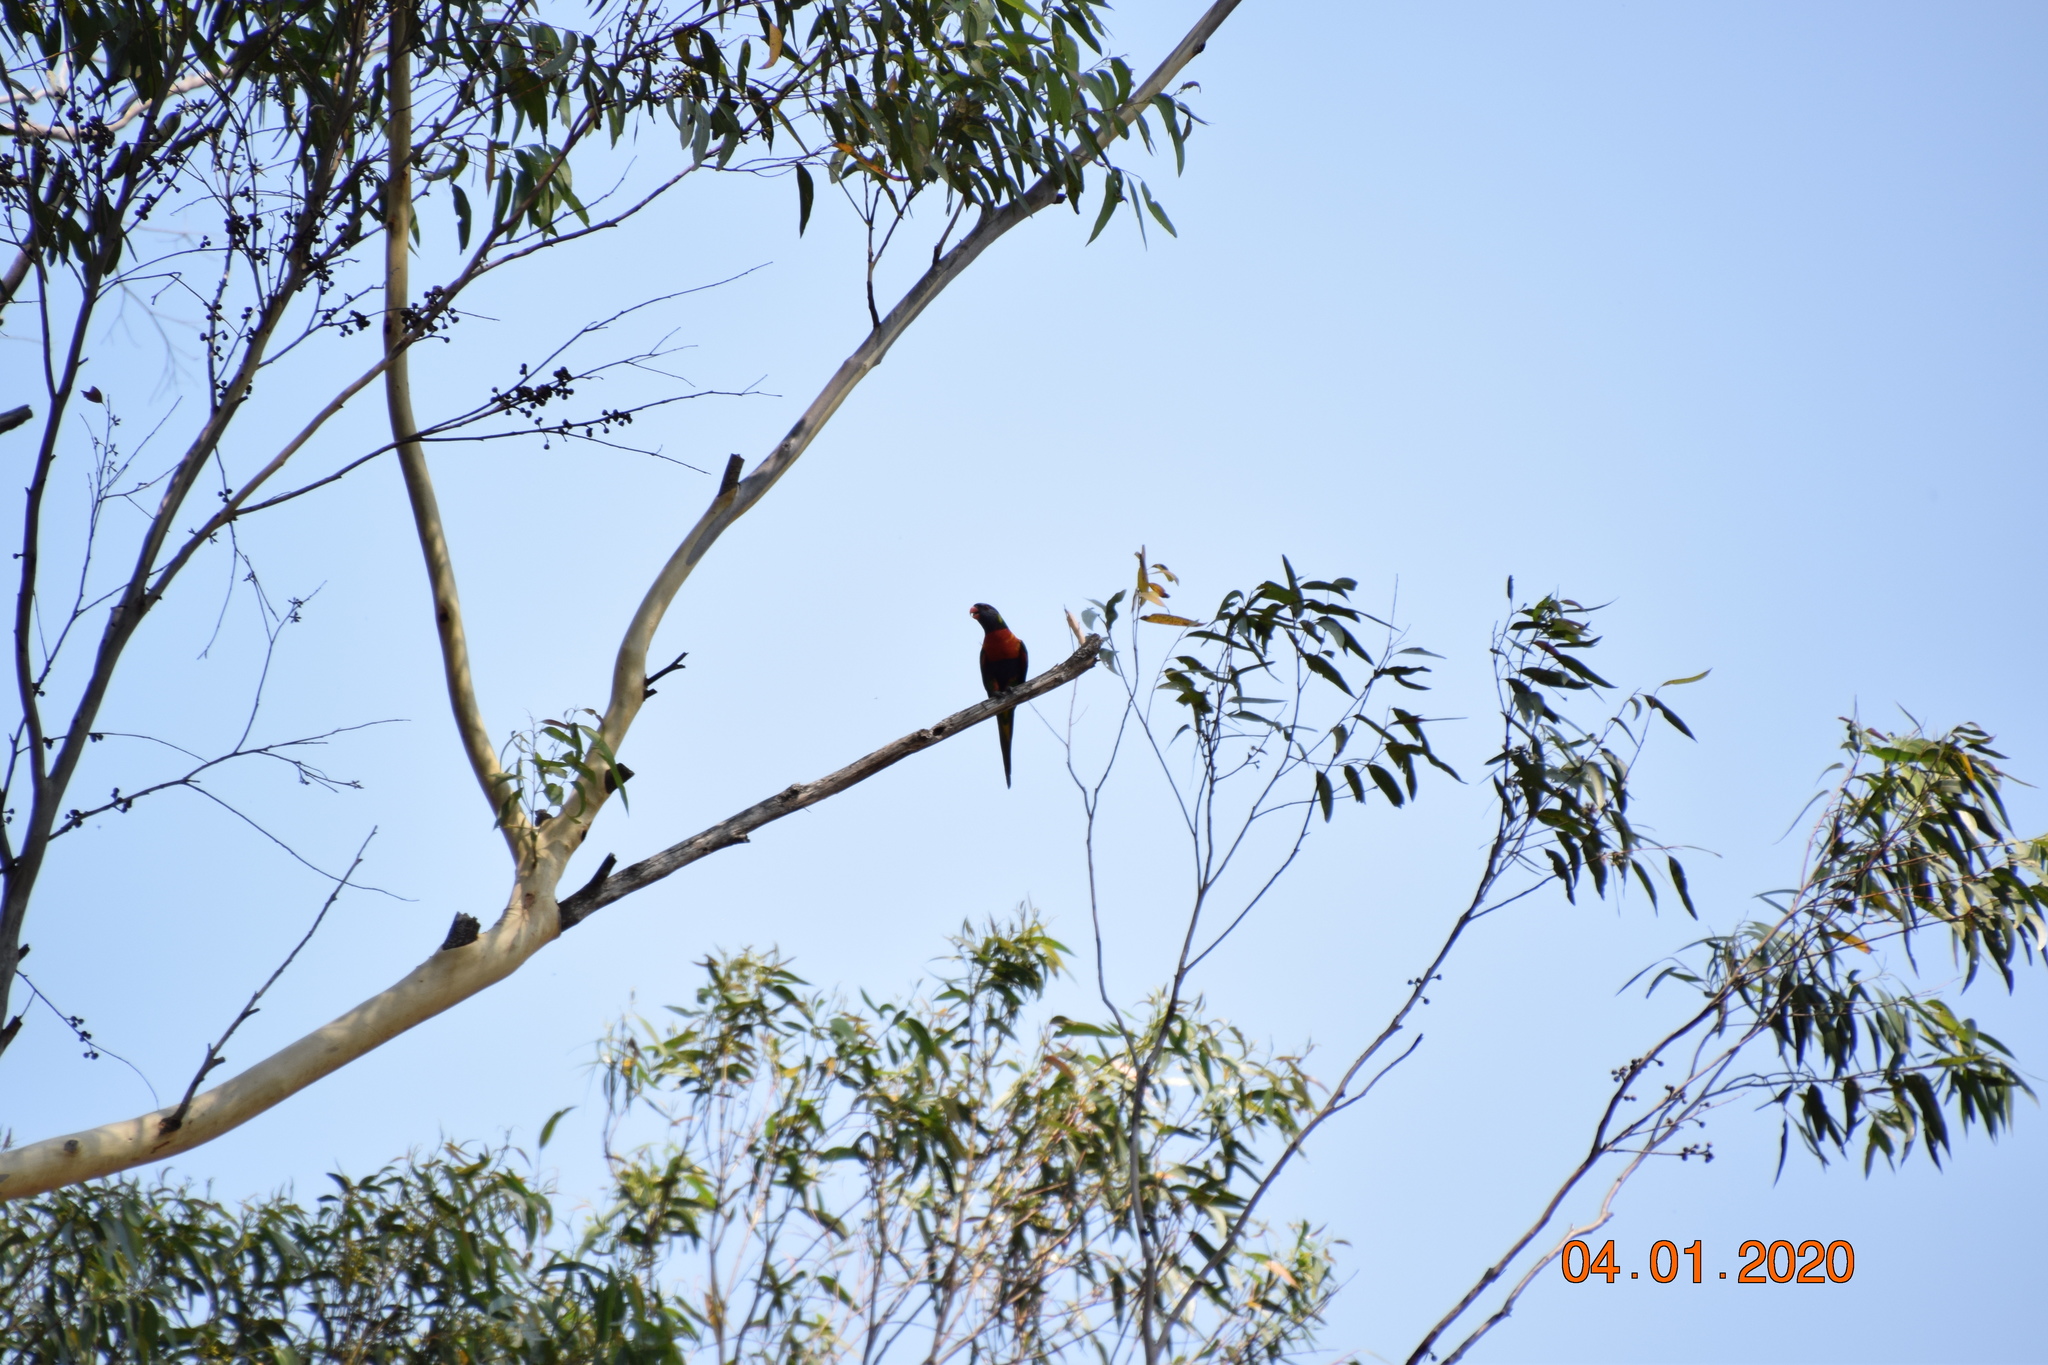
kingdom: Animalia
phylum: Chordata
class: Aves
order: Psittaciformes
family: Psittacidae
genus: Trichoglossus
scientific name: Trichoglossus haematodus
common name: Coconut lorikeet
